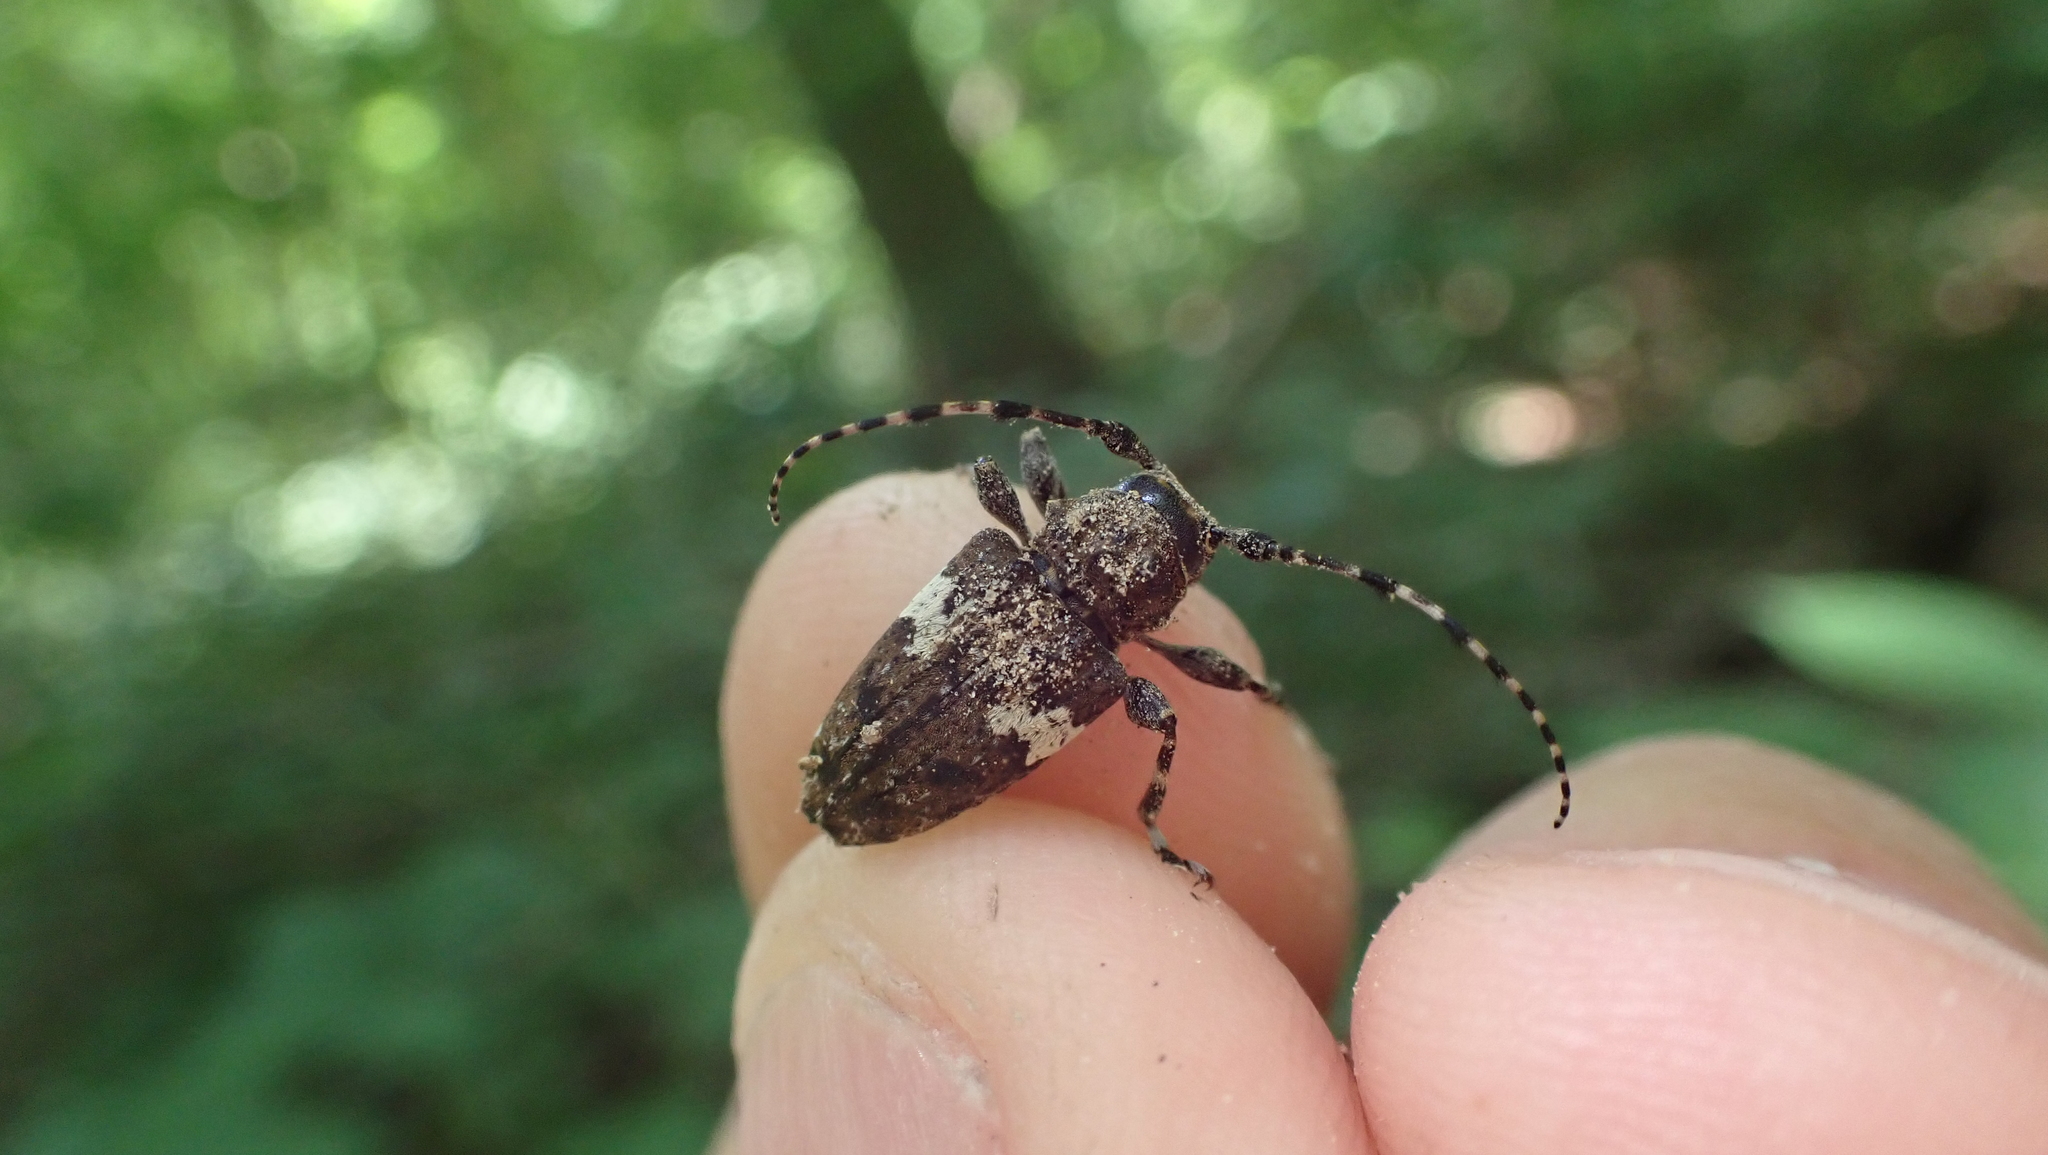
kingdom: Animalia
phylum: Arthropoda
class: Insecta
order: Coleoptera
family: Cerambycidae
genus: Acanthoderes
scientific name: Acanthoderes quadrigibba
